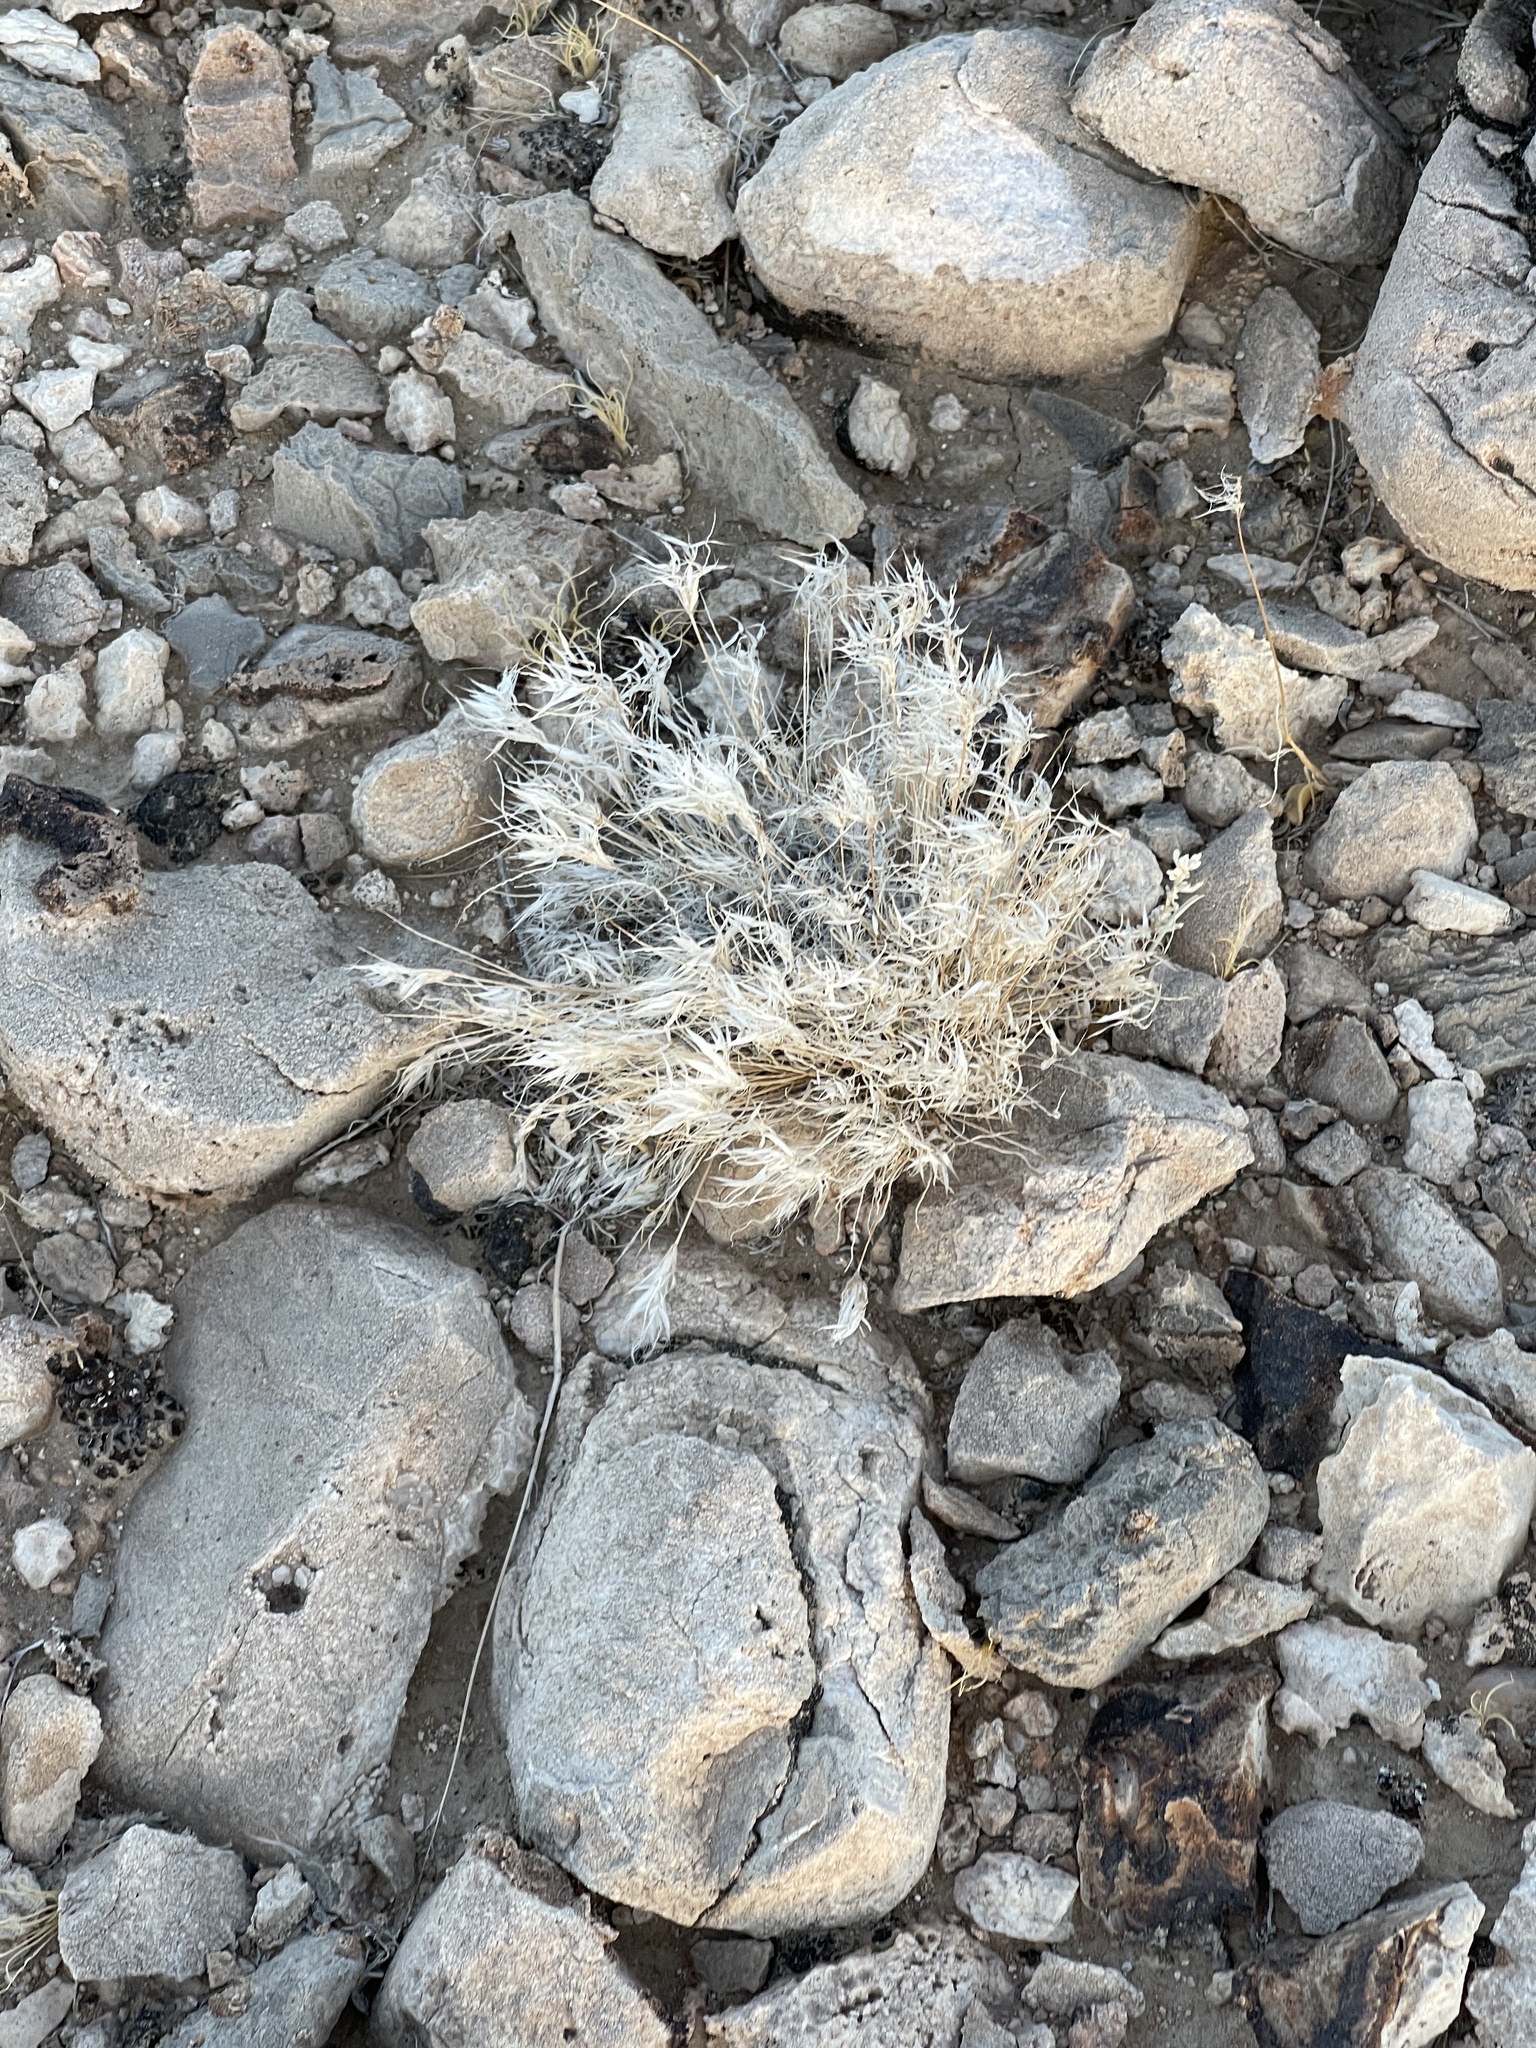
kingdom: Plantae
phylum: Tracheophyta
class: Liliopsida
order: Poales
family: Poaceae
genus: Dasyochloa
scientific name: Dasyochloa pulchella
